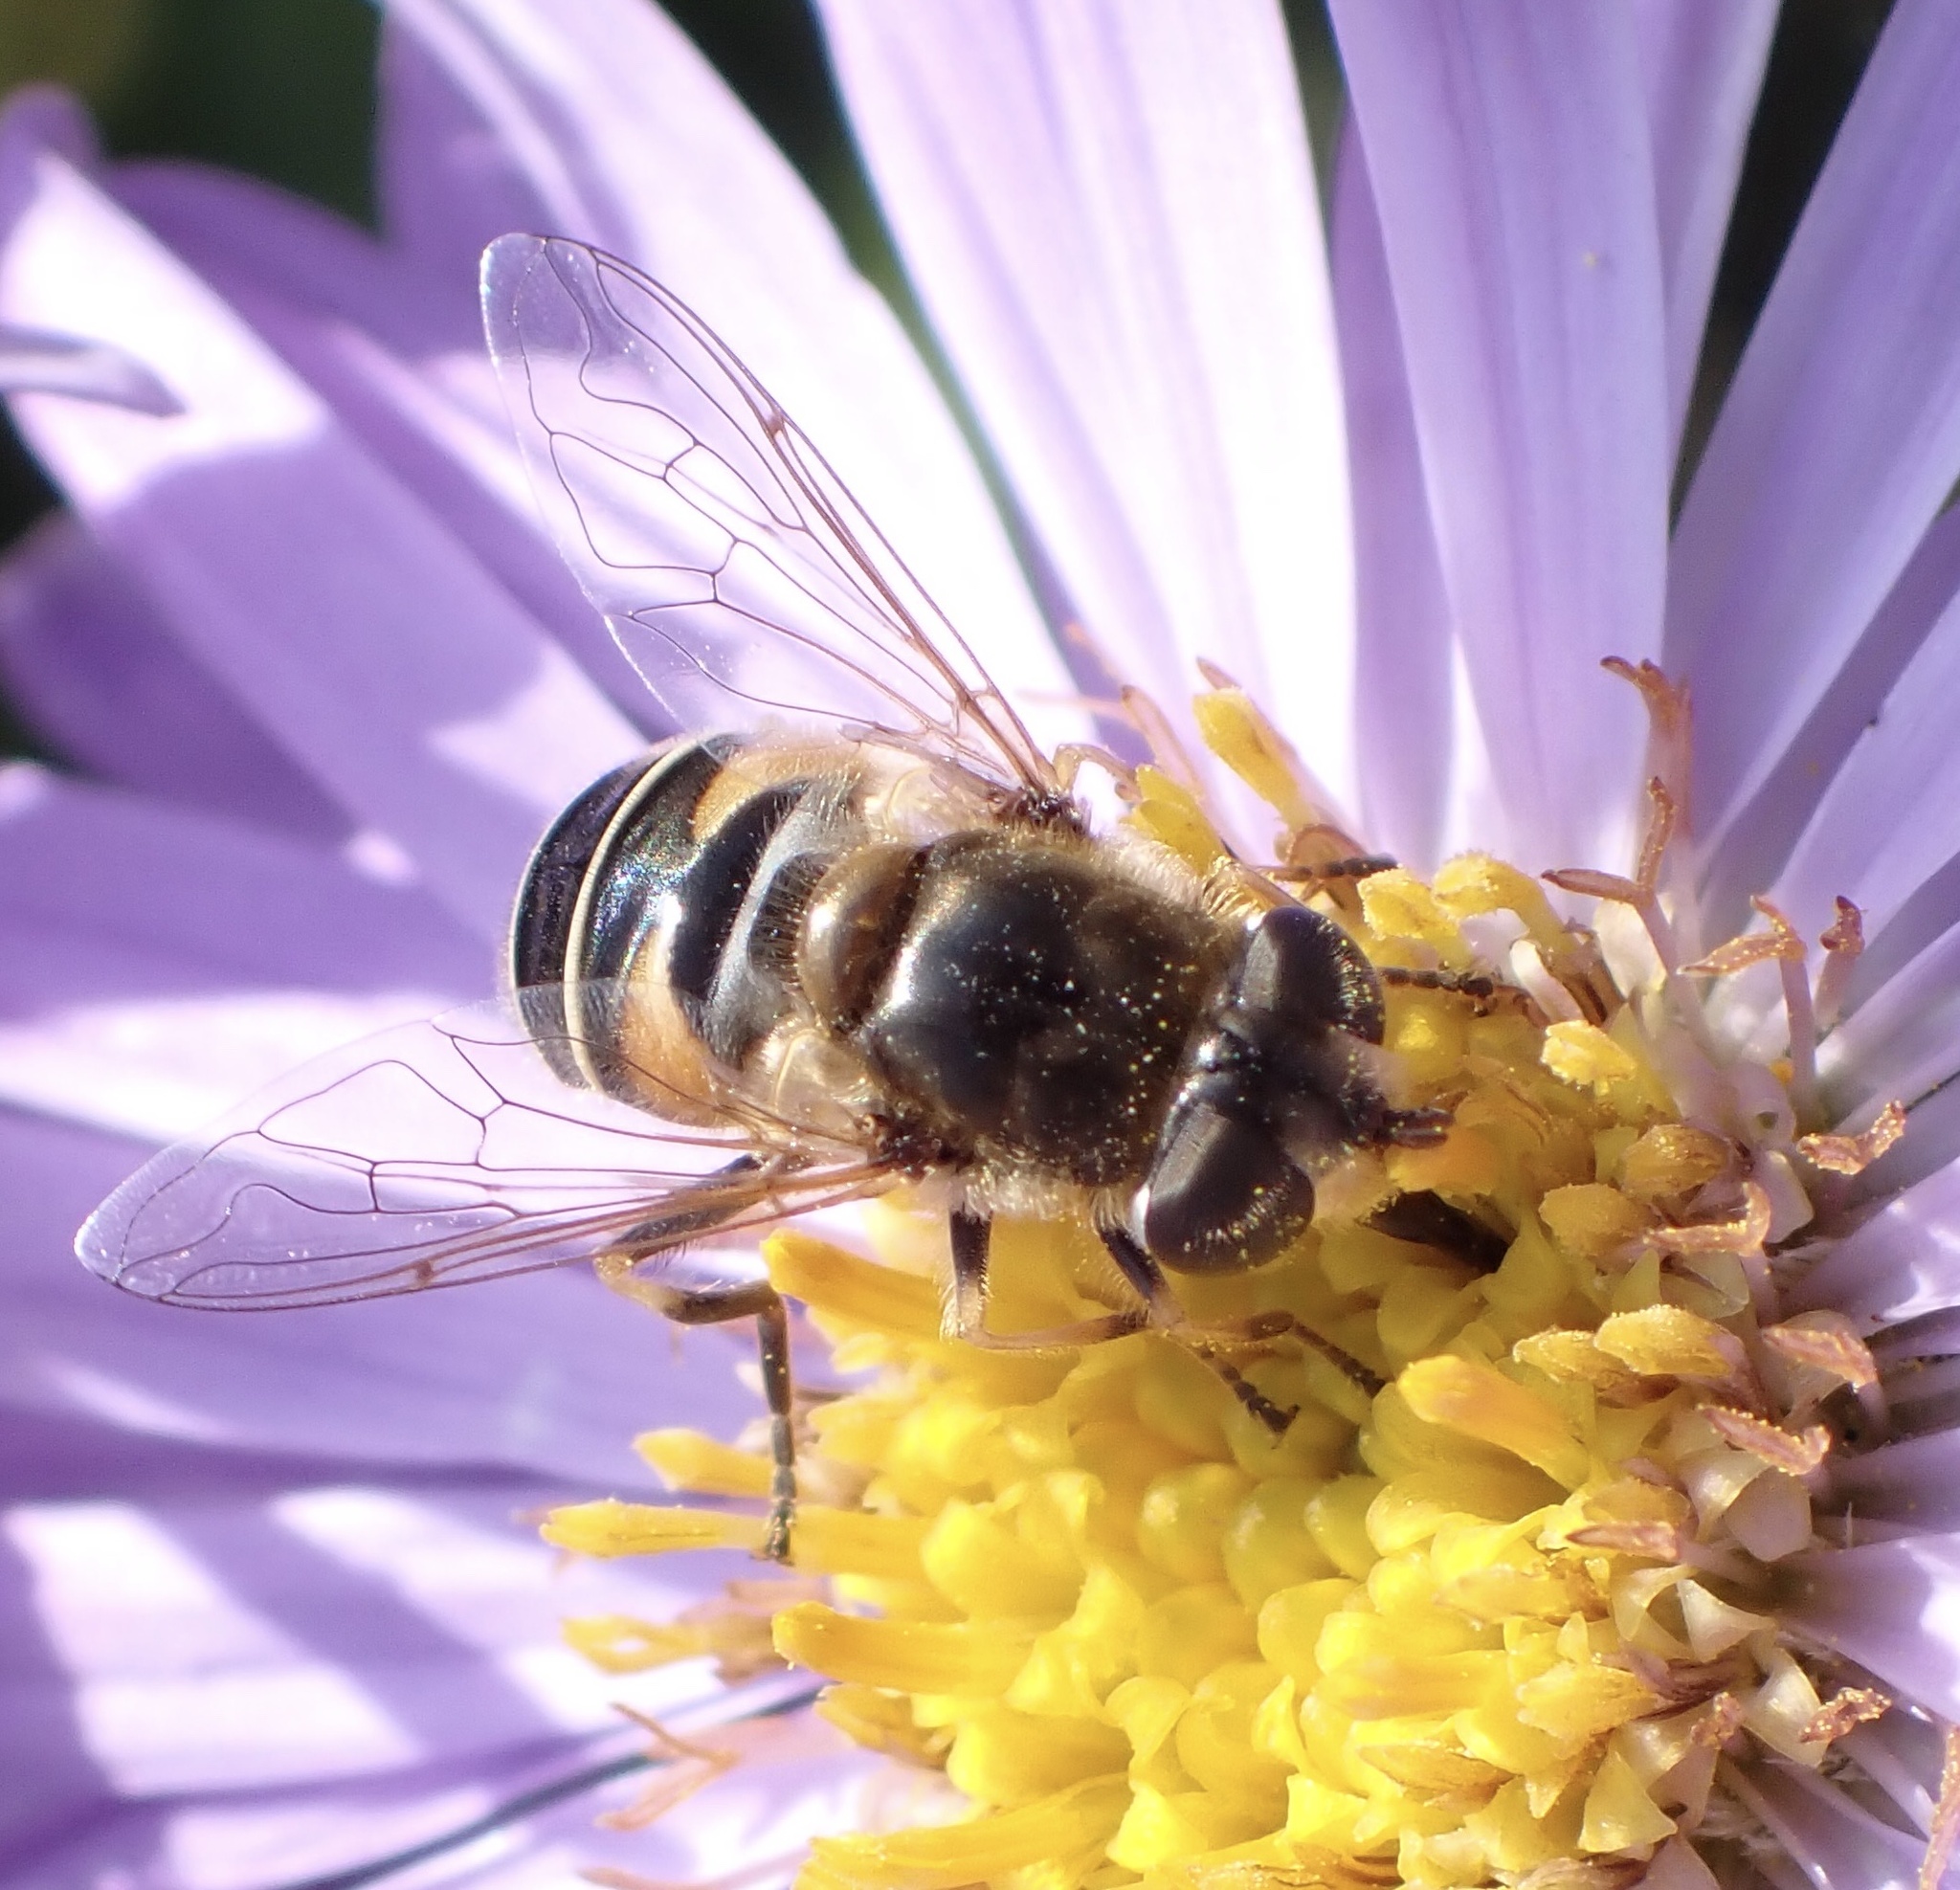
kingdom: Animalia
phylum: Arthropoda
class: Insecta
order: Diptera
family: Syrphidae
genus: Eristalis
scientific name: Eristalis nemorum
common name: Orange-spined drone fly
